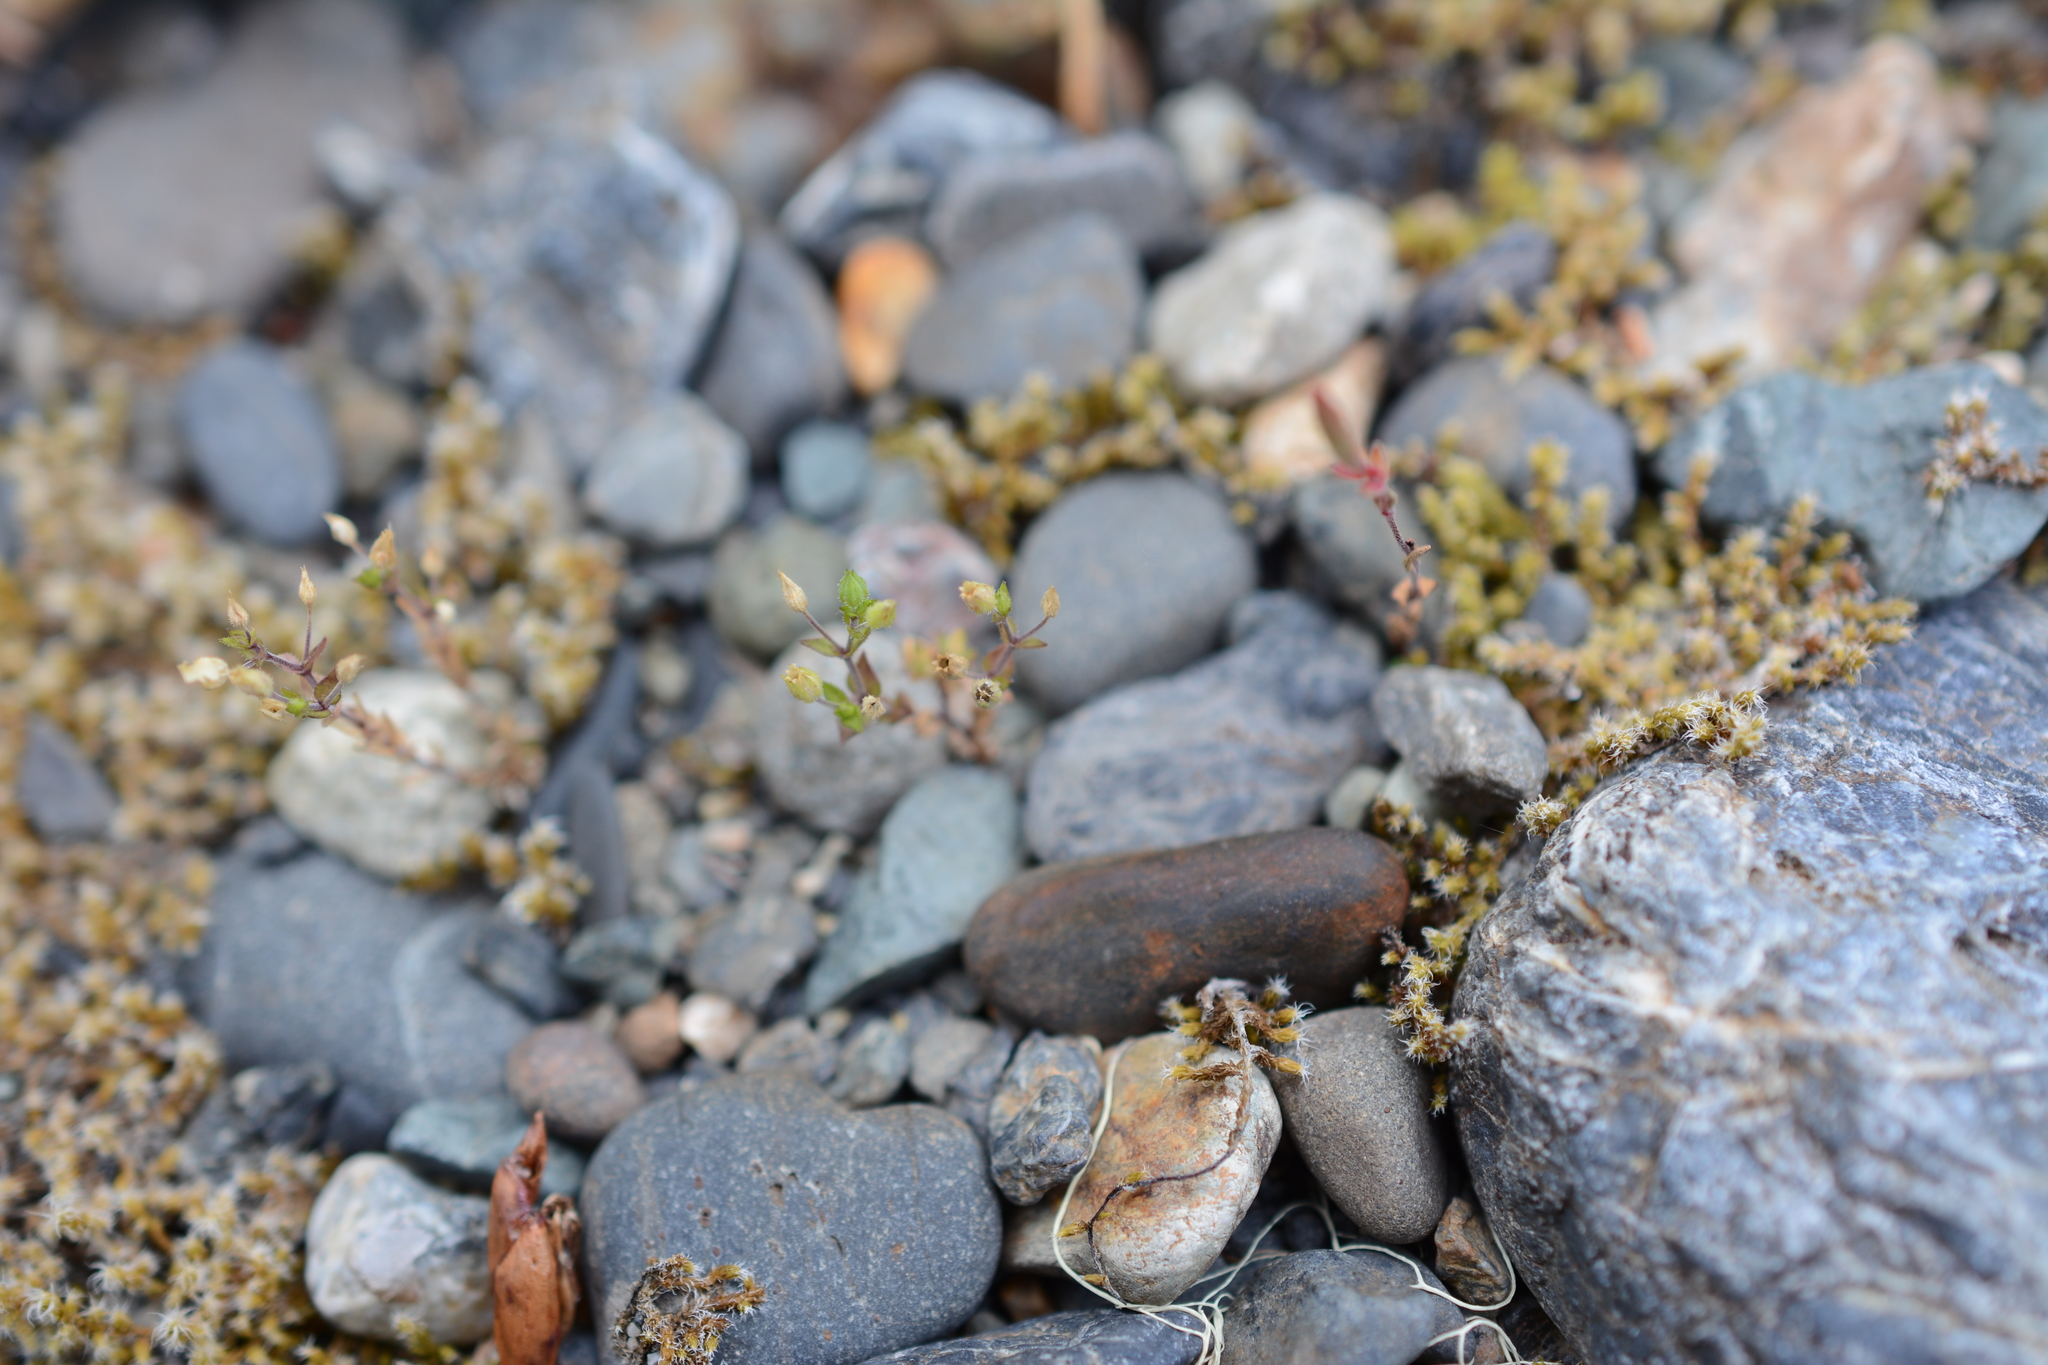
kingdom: Plantae
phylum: Tracheophyta
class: Magnoliopsida
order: Caryophyllales
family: Caryophyllaceae
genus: Arenaria
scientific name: Arenaria serpyllifolia
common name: Thyme-leaved sandwort
